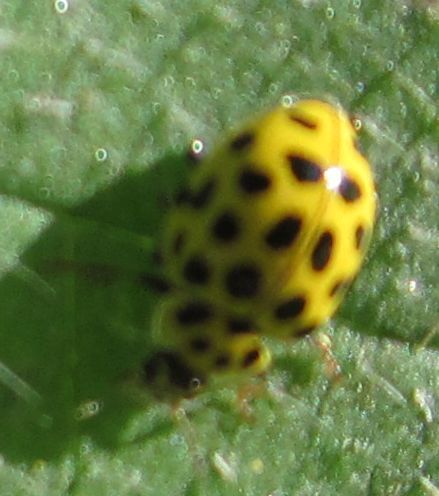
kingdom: Animalia
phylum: Arthropoda
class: Insecta
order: Coleoptera
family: Coccinellidae
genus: Psyllobora
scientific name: Psyllobora vigintiduopunctata
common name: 22-spot ladybird
